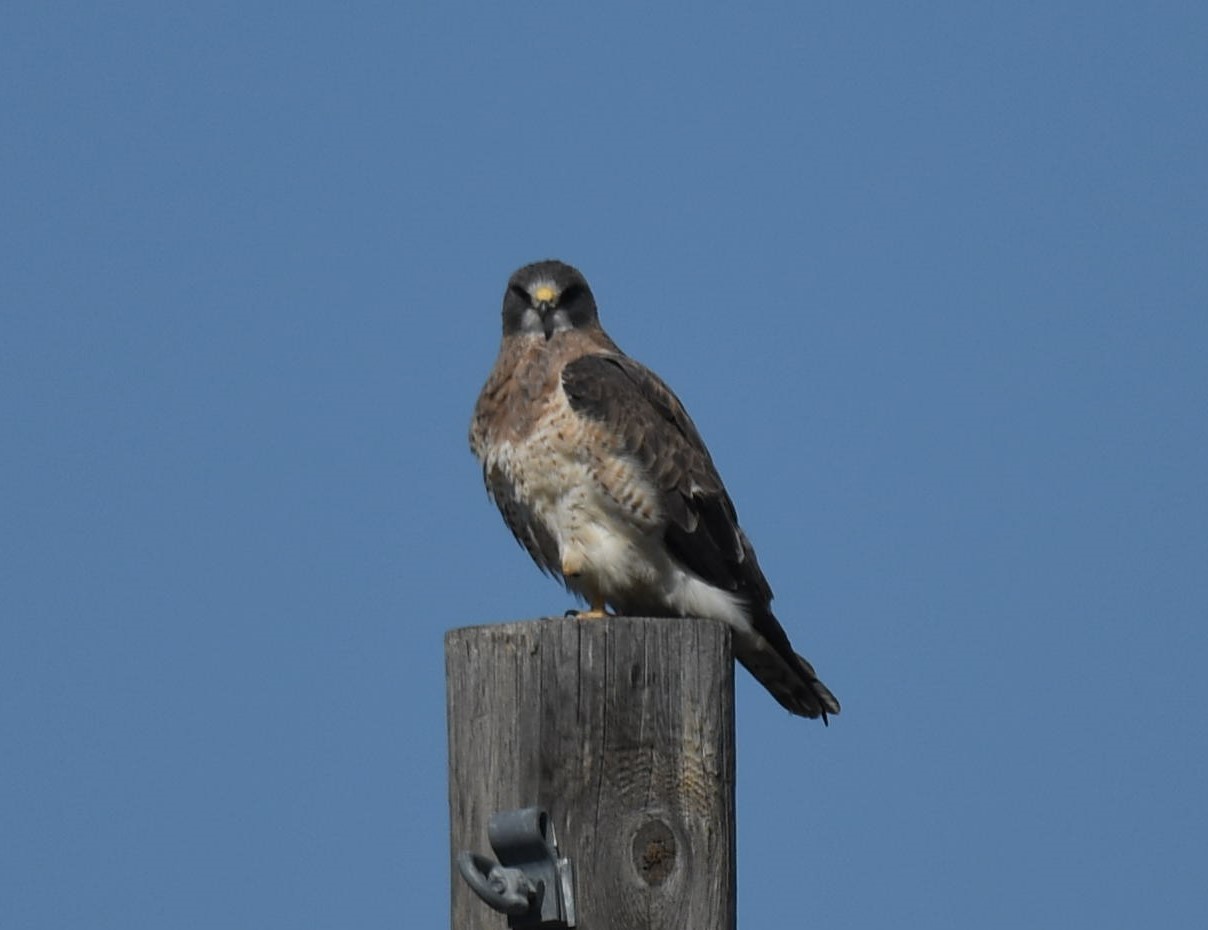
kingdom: Animalia
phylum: Chordata
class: Aves
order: Accipitriformes
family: Accipitridae
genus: Buteo
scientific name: Buteo swainsoni
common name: Swainson's hawk
